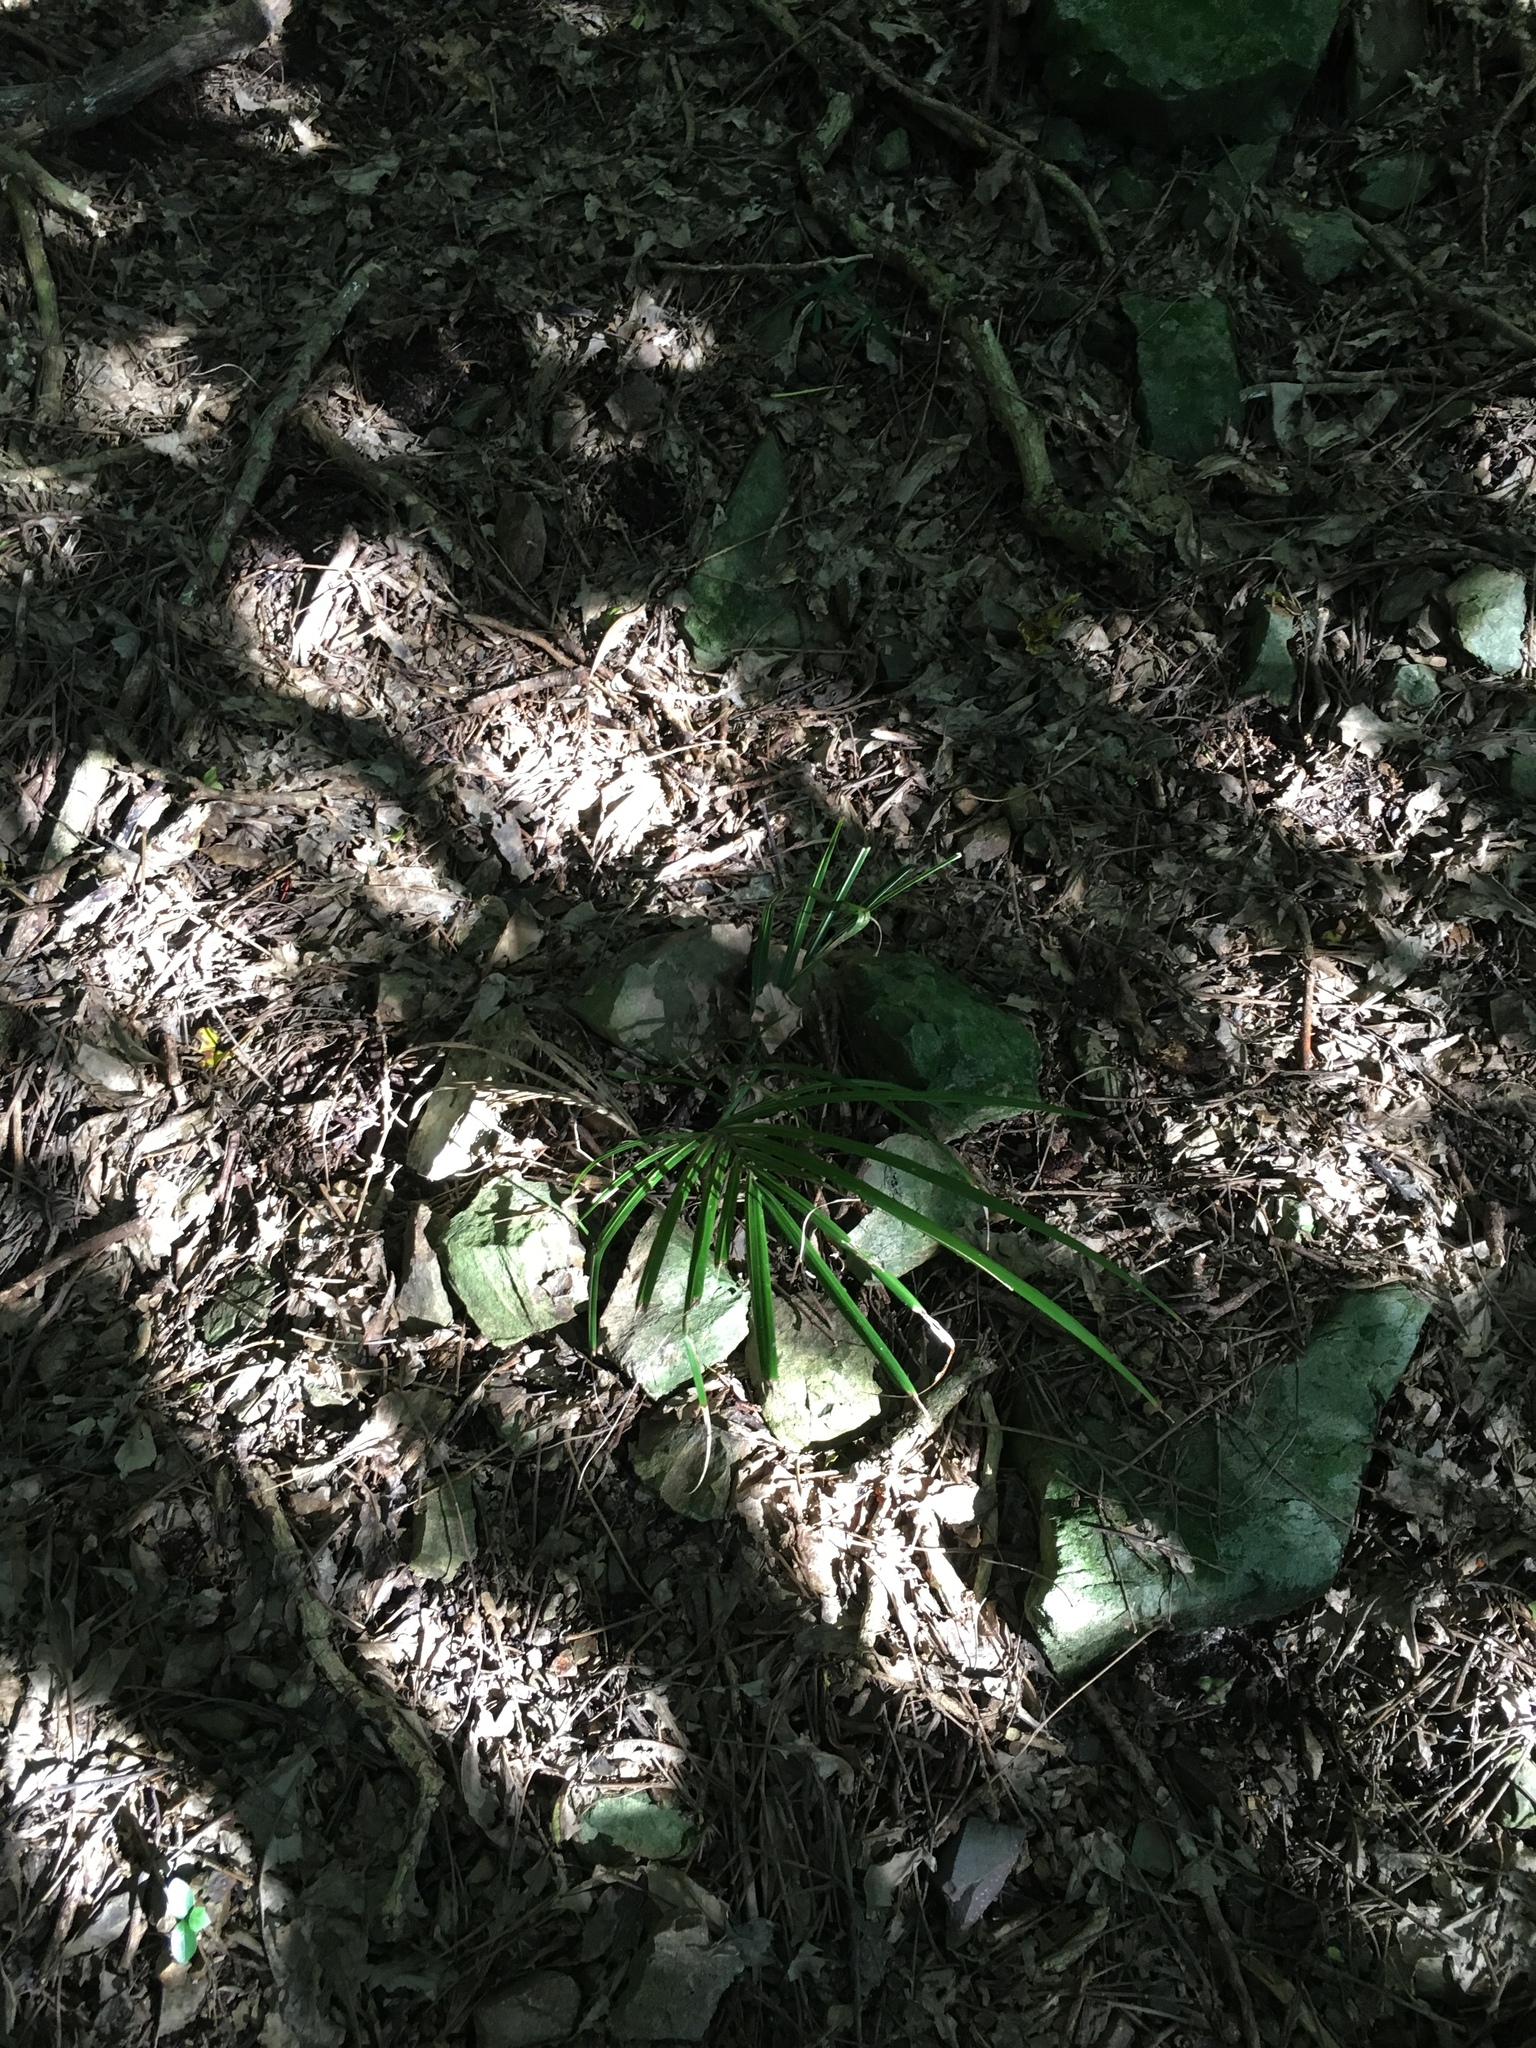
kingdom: Plantae
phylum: Tracheophyta
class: Liliopsida
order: Arecales
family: Arecaceae
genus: Rhopalostylis
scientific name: Rhopalostylis sapida
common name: Feather-duster palm
